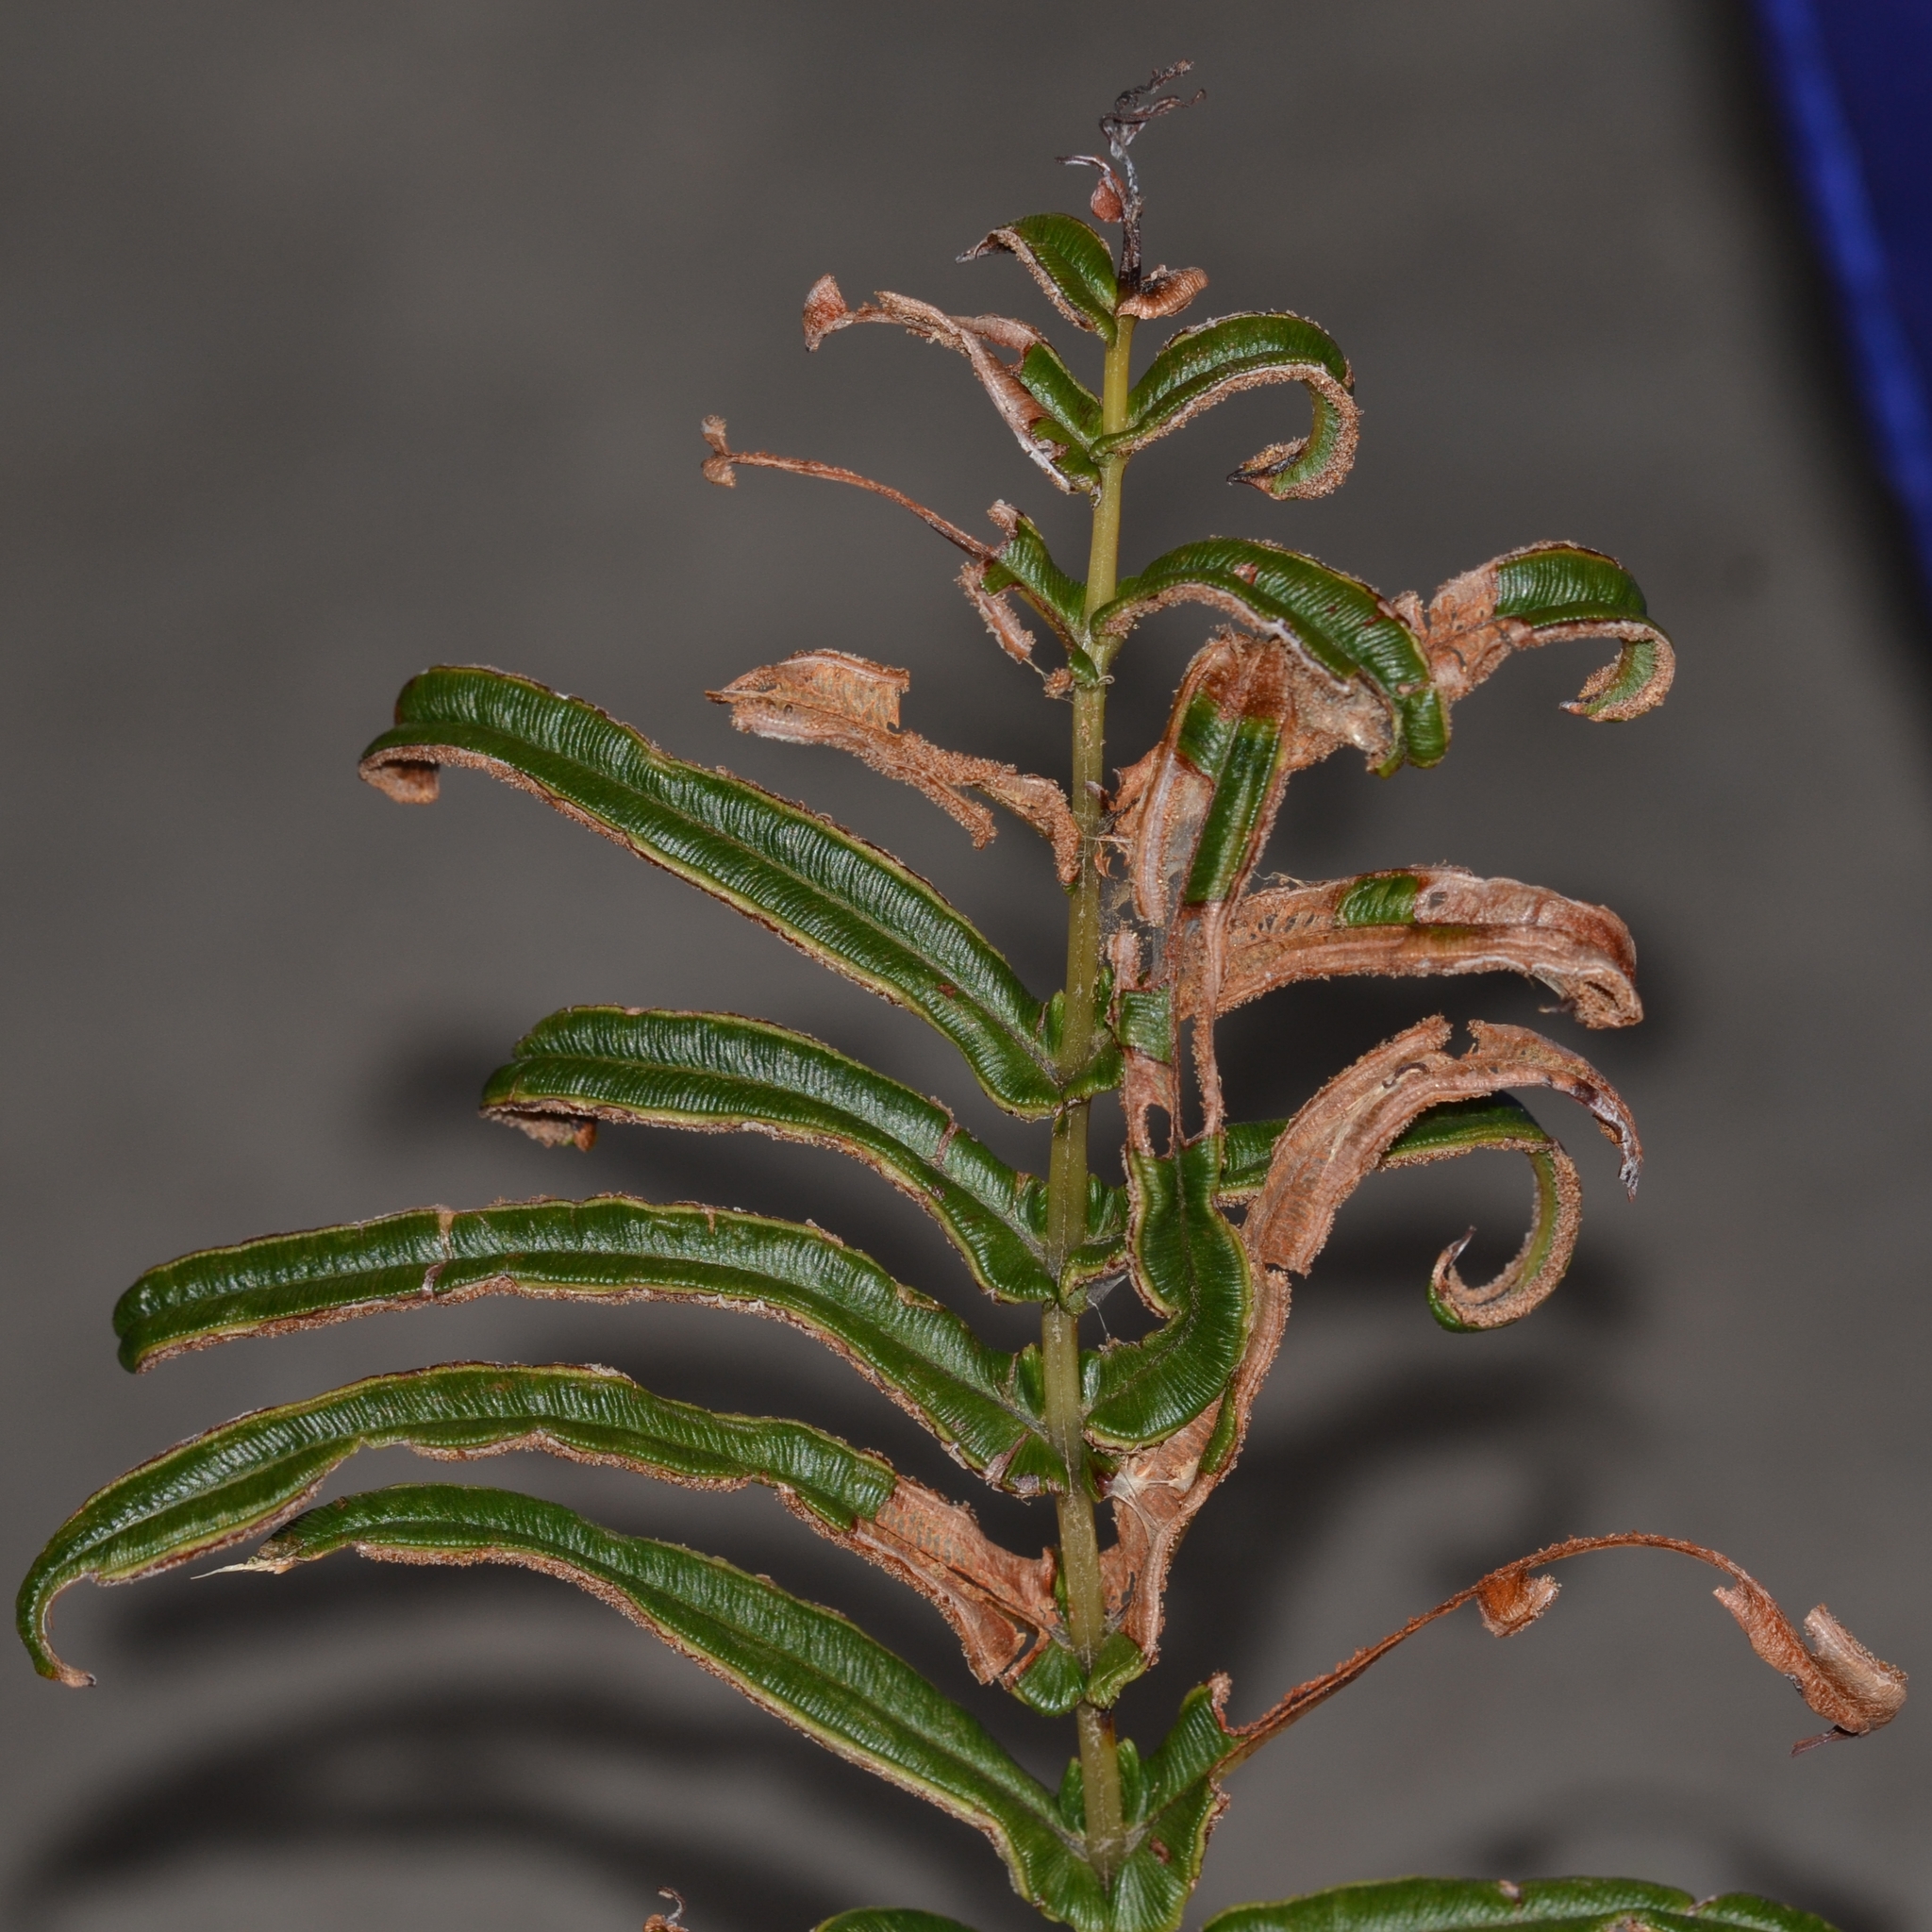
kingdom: Plantae
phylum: Tracheophyta
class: Polypodiopsida
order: Polypodiales
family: Pteridaceae
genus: Pteris
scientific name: Pteris vittata
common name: Ladder brake
